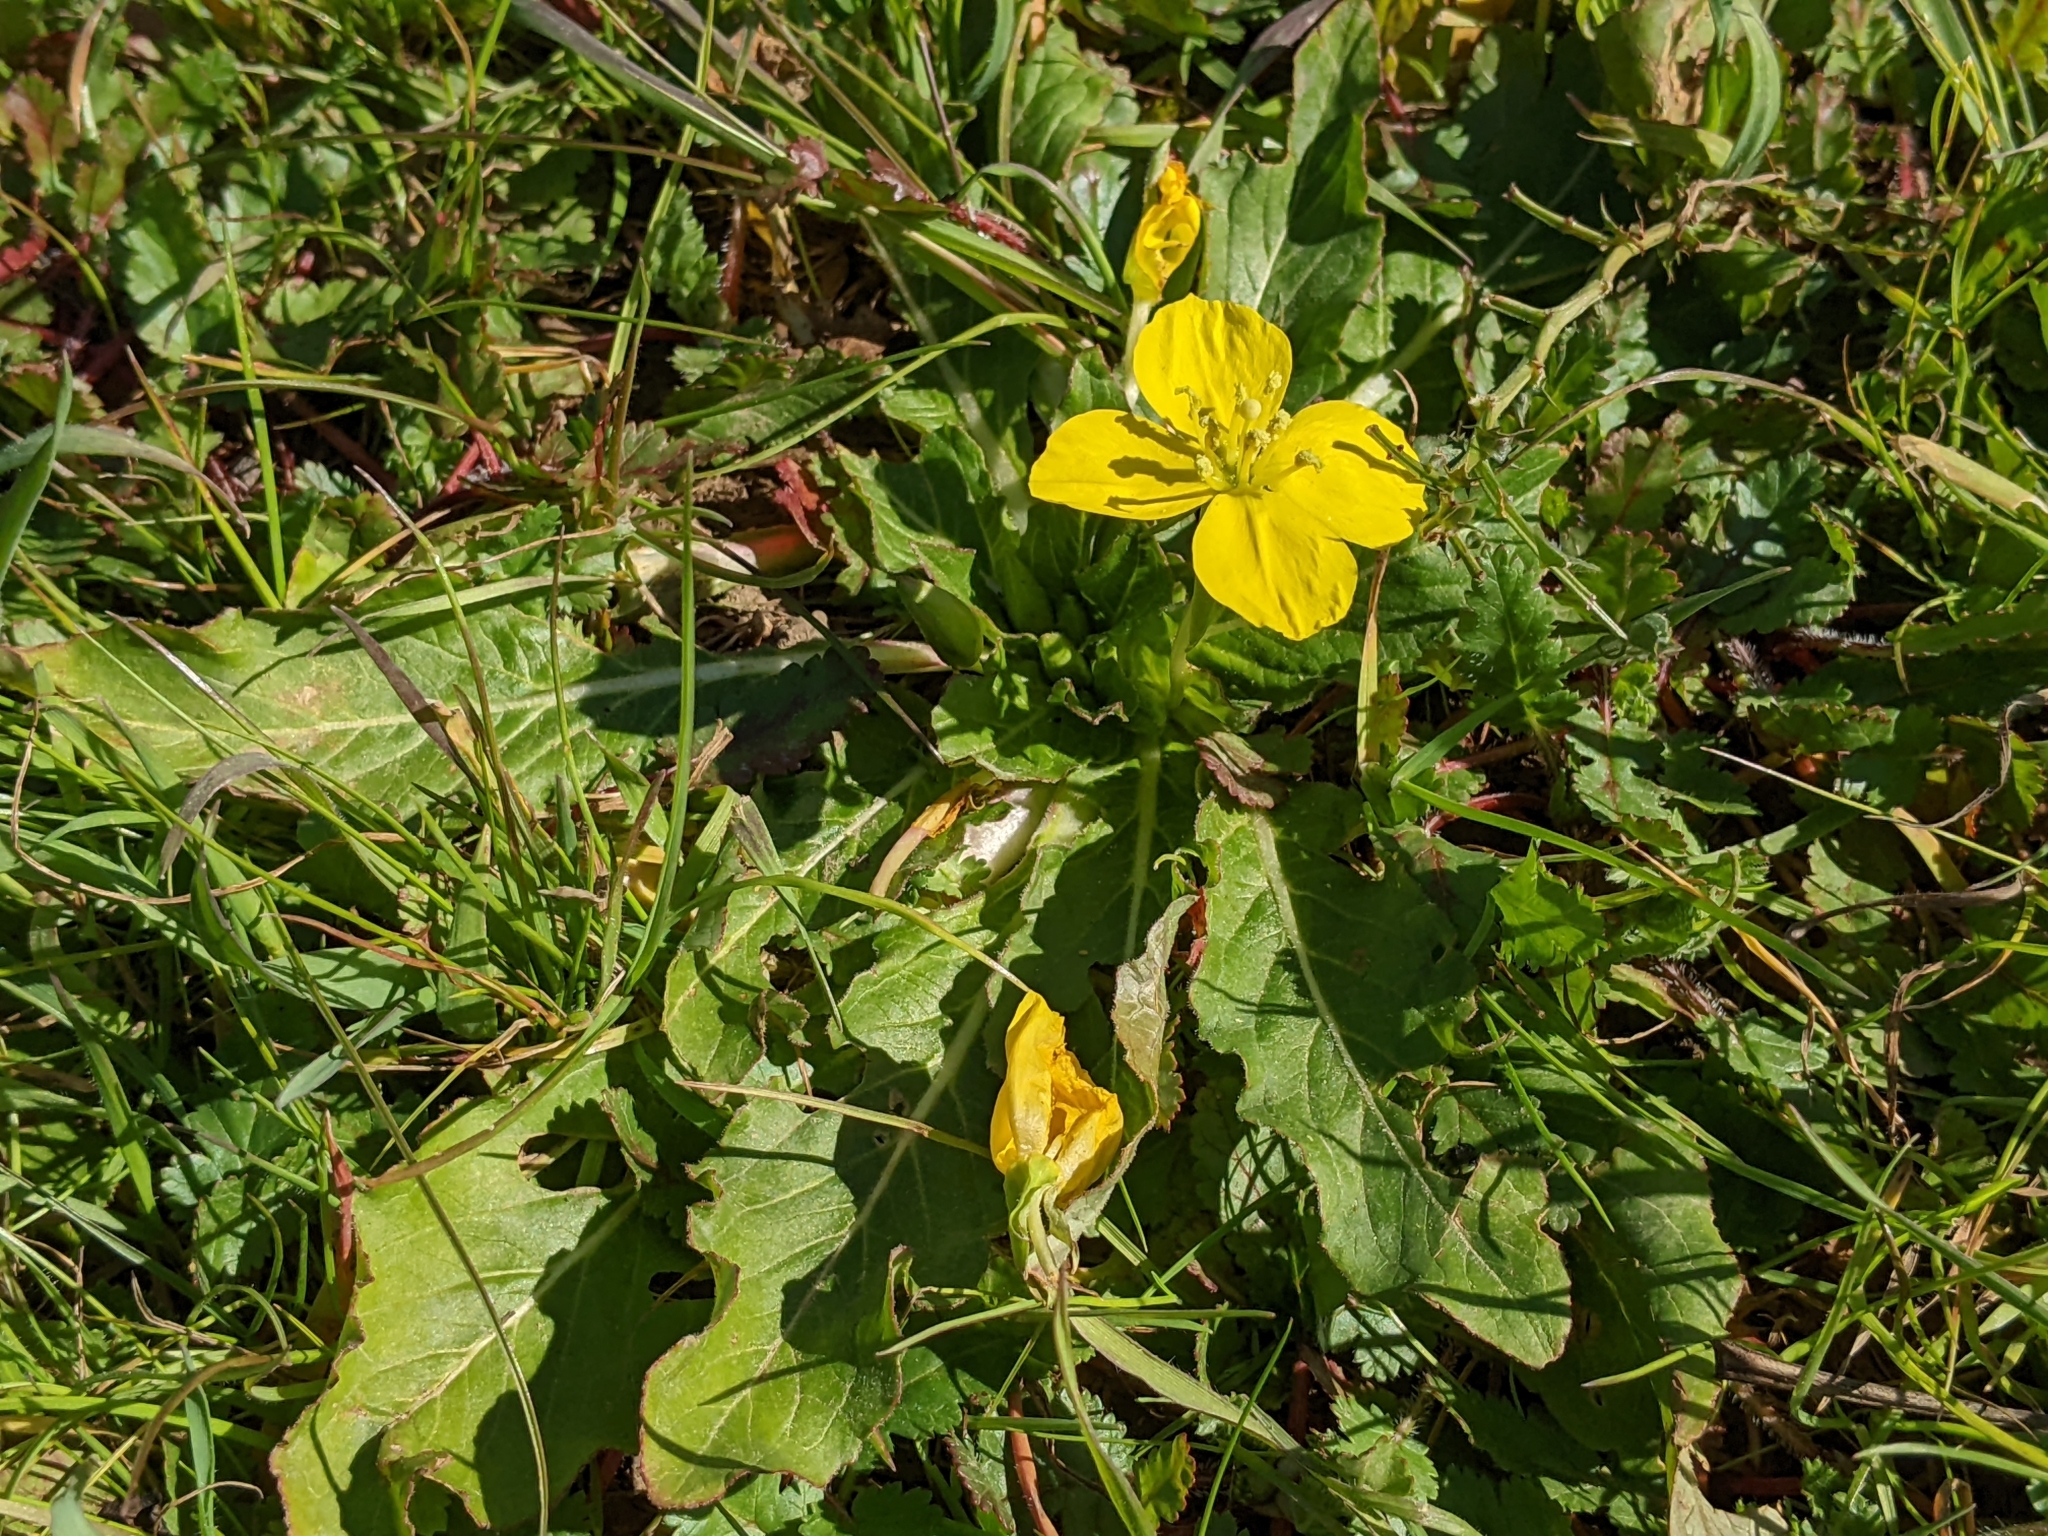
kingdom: Plantae
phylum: Tracheophyta
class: Magnoliopsida
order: Myrtales
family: Onagraceae
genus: Taraxia
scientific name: Taraxia ovata
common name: Goldeneggs
